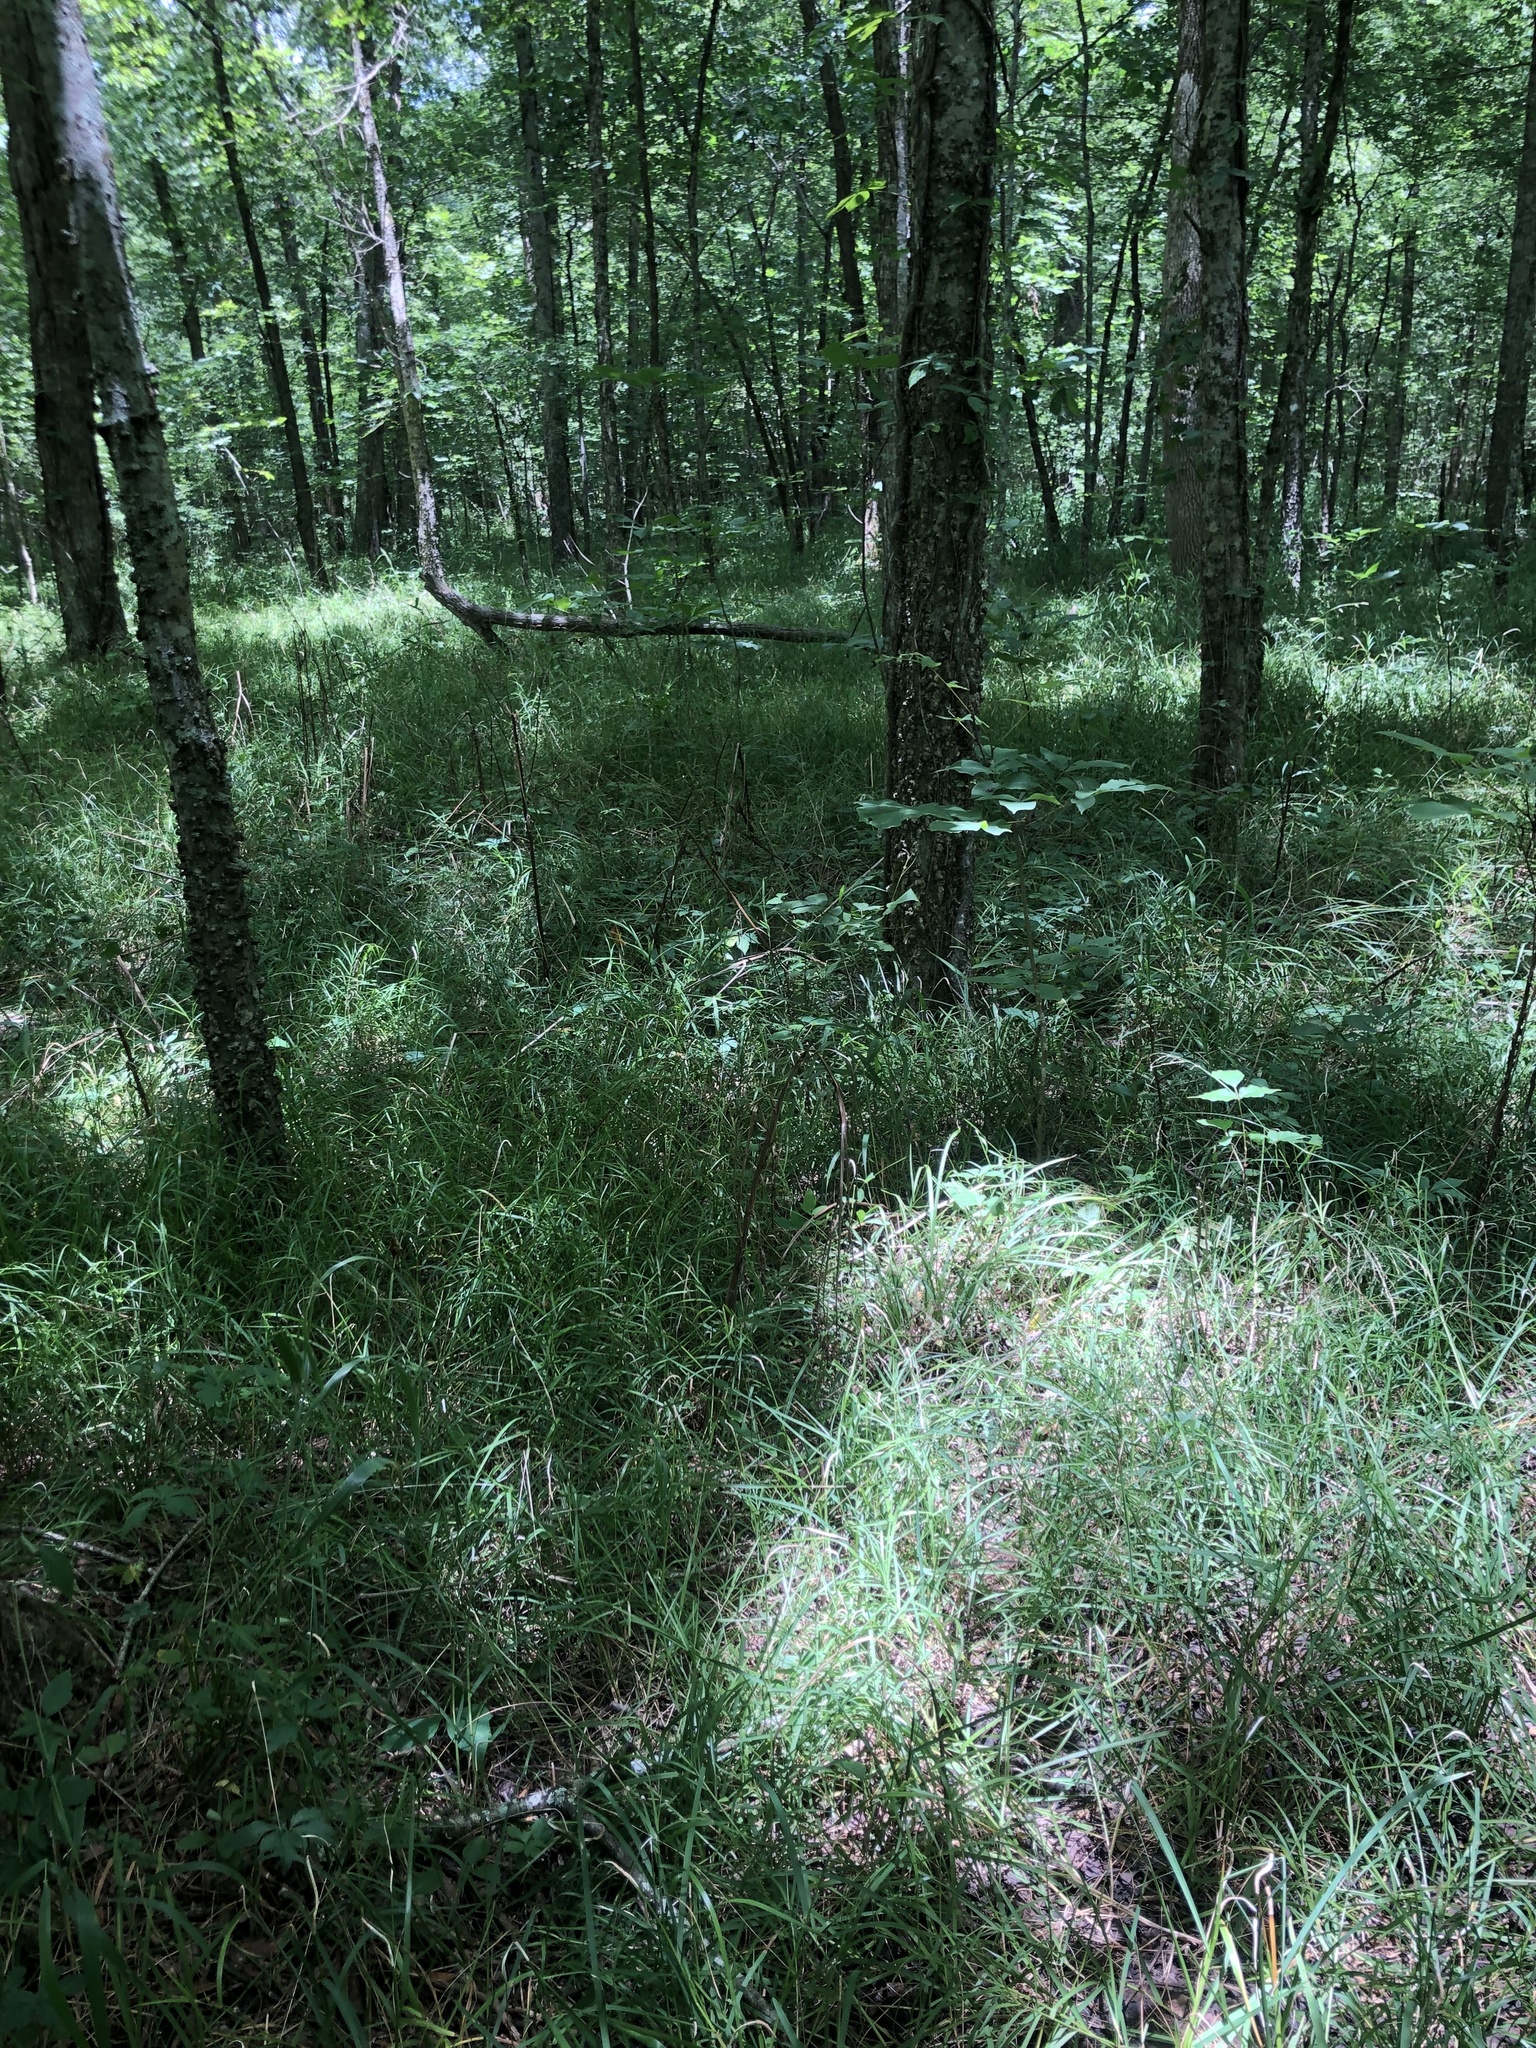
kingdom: Plantae
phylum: Tracheophyta
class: Liliopsida
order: Poales
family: Poaceae
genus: Glyceria
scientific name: Glyceria striata
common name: Fowl manna grass
